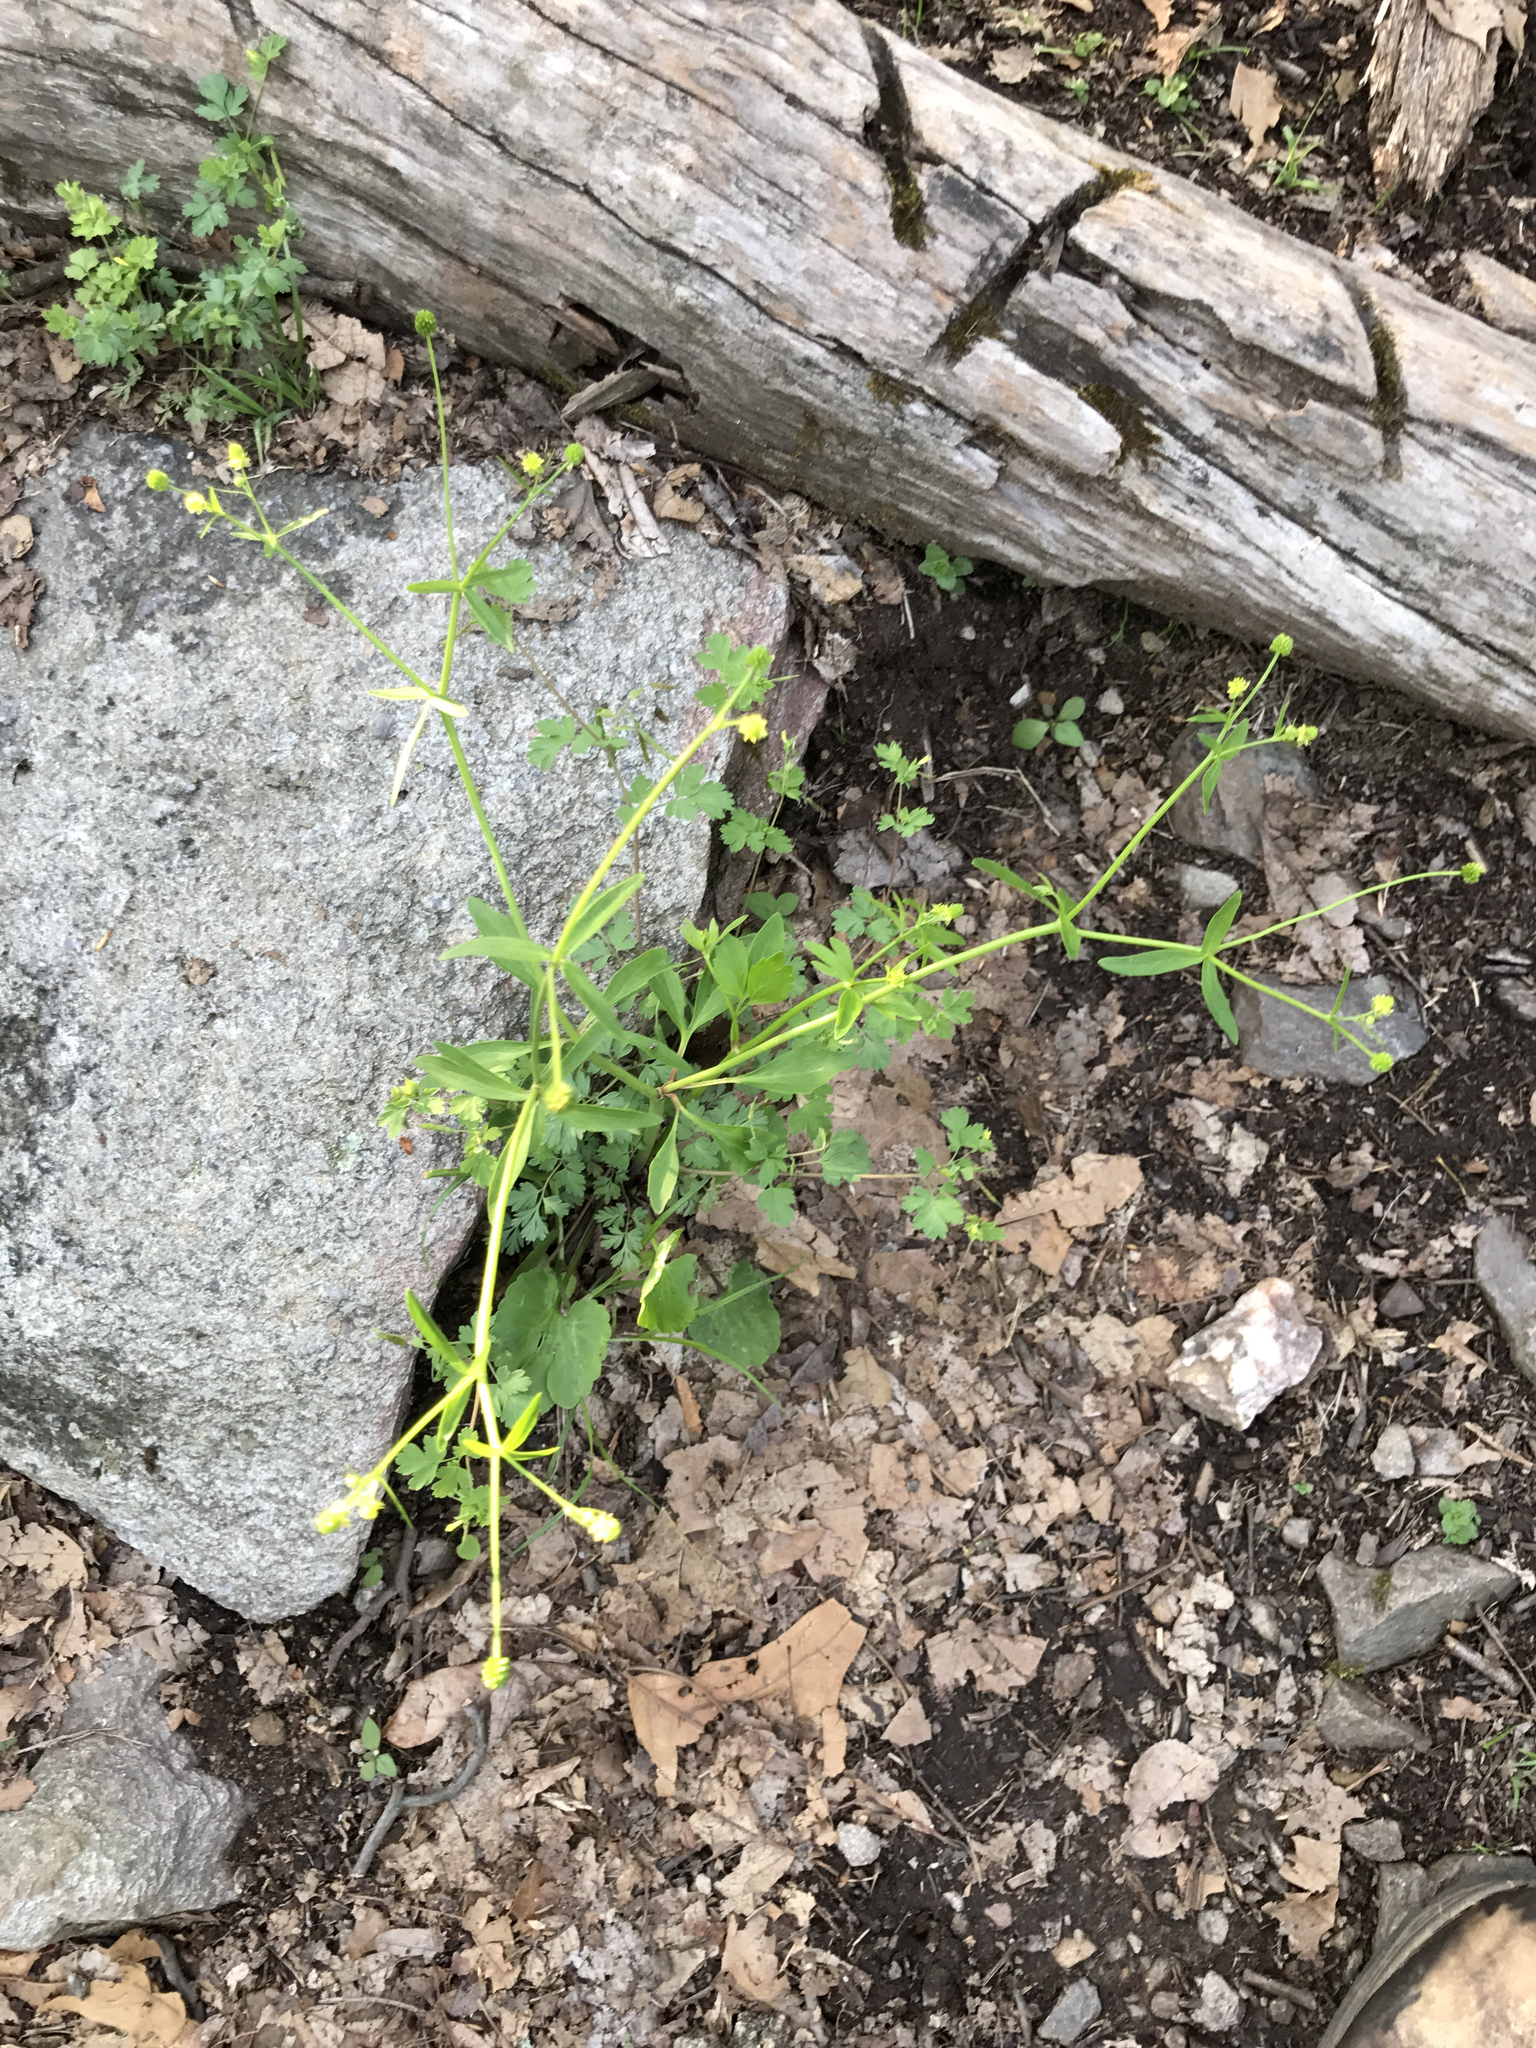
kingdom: Plantae
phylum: Tracheophyta
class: Magnoliopsida
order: Ranunculales
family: Ranunculaceae
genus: Ranunculus
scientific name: Ranunculus abortivus
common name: Early wood buttercup
